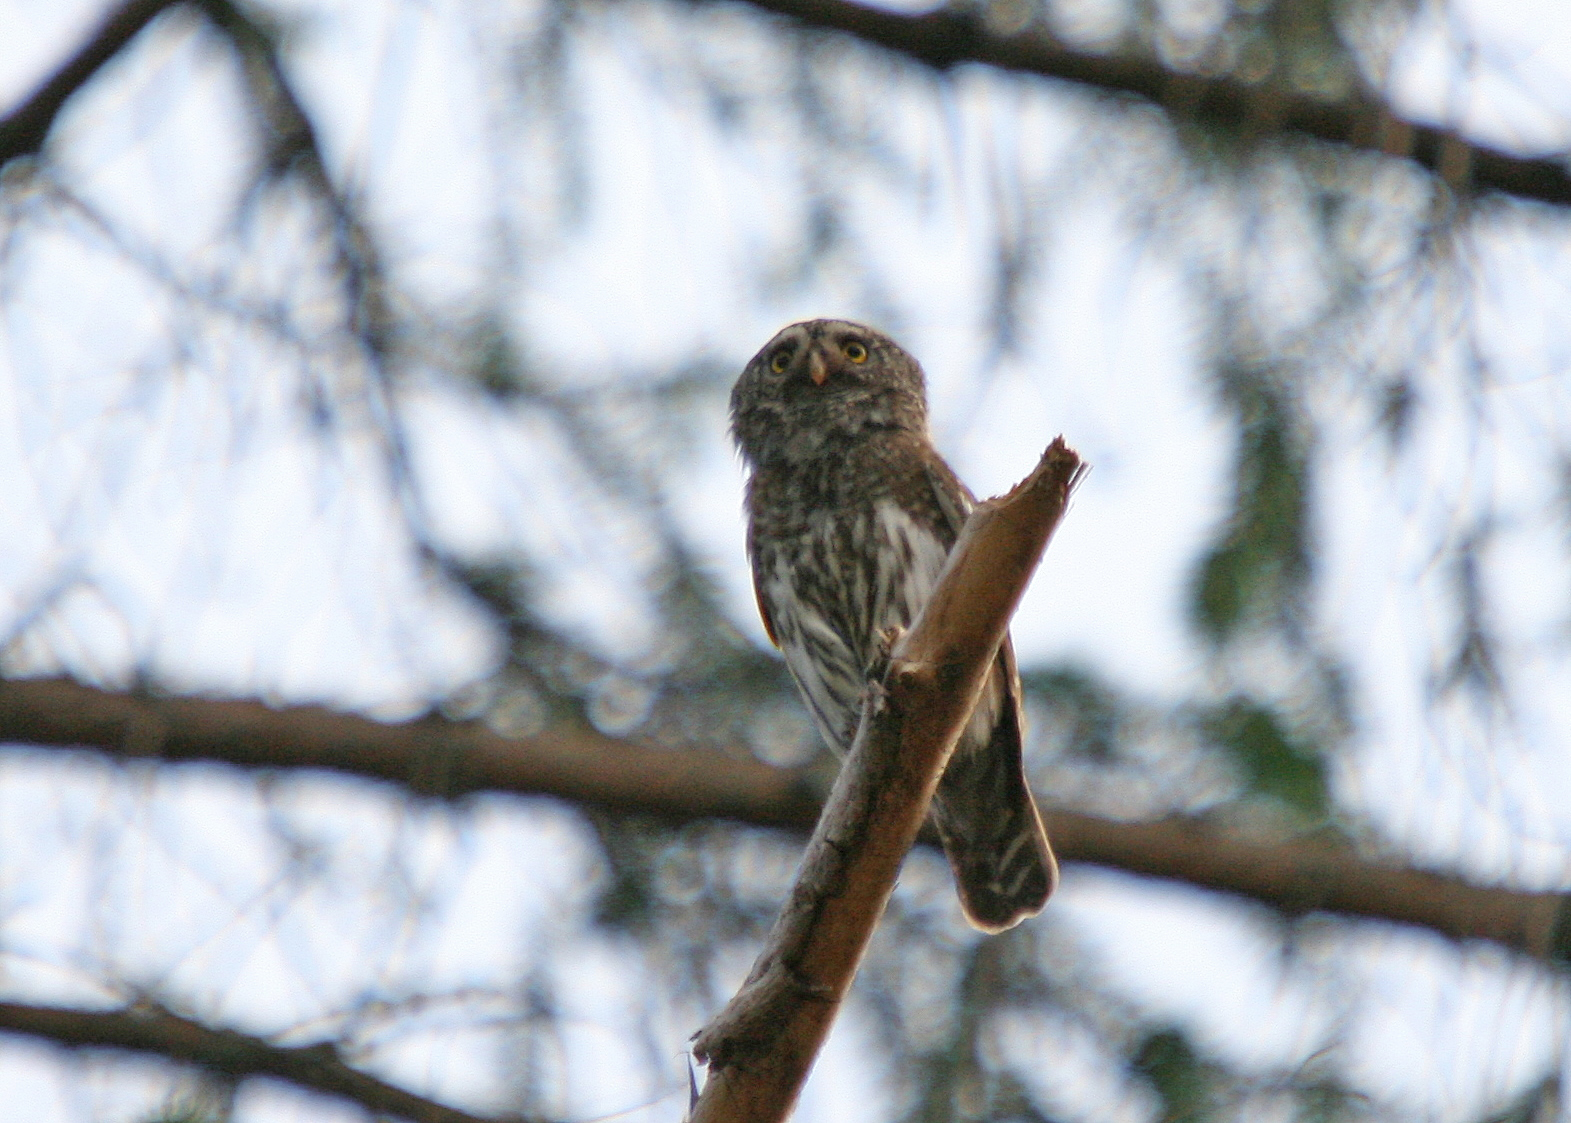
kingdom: Animalia
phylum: Chordata
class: Aves
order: Strigiformes
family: Strigidae
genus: Glaucidium
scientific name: Glaucidium passerinum
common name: Eurasian pygmy owl
